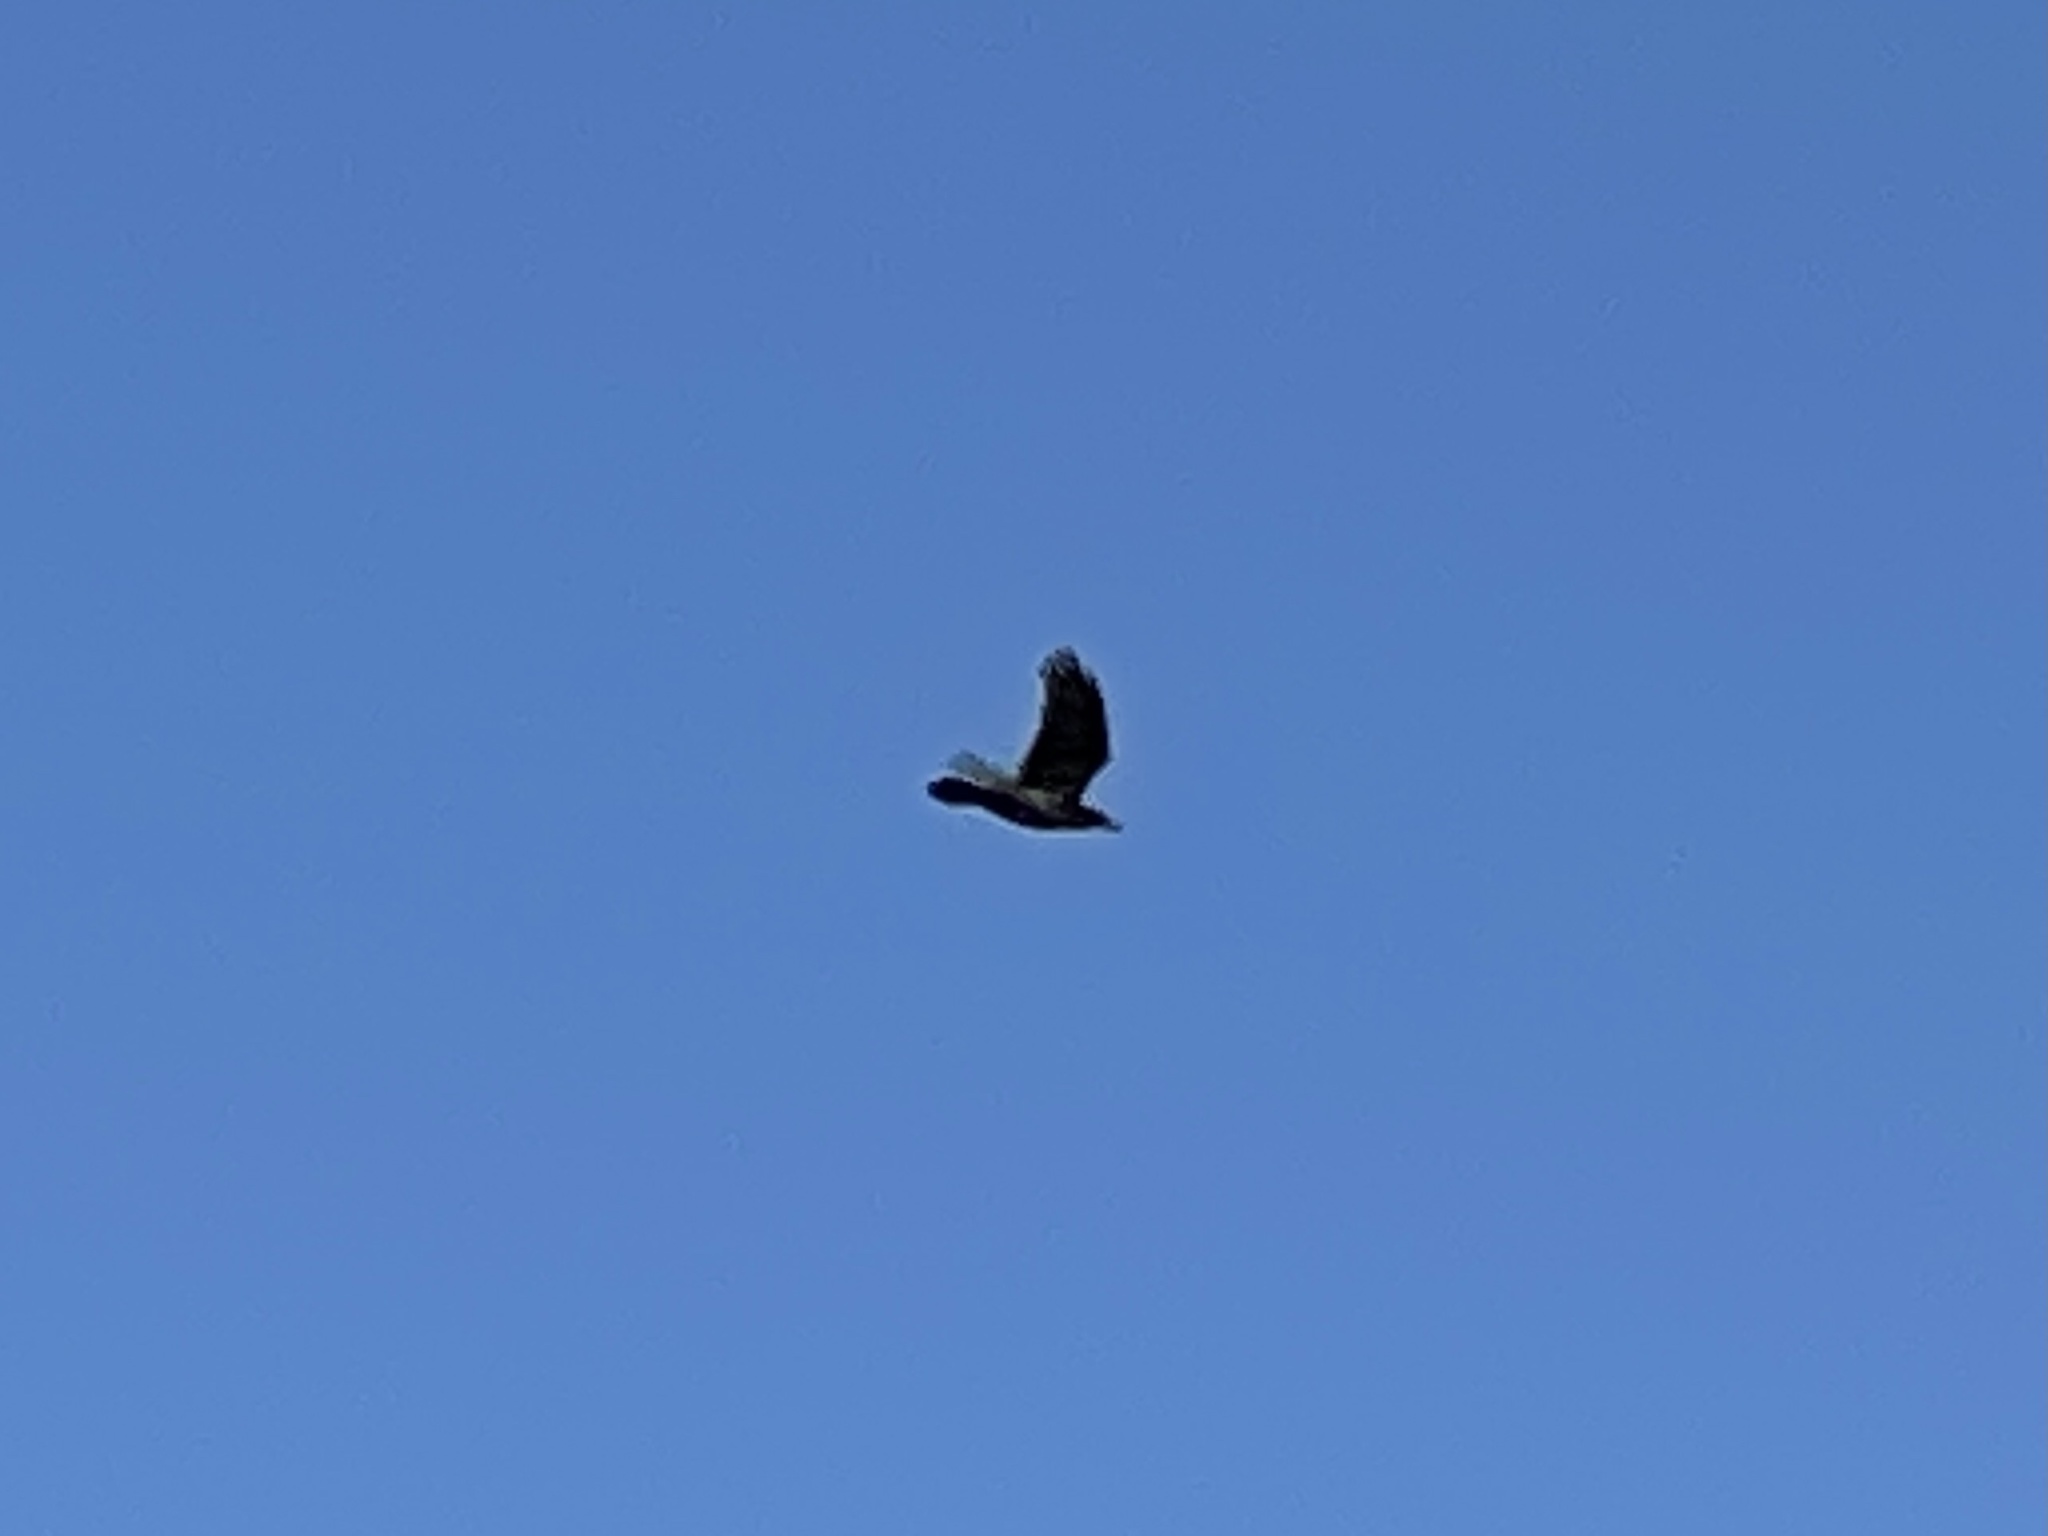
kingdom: Animalia
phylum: Chordata
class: Aves
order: Passeriformes
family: Corvidae
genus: Corvus
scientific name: Corvus corax
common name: Common raven
